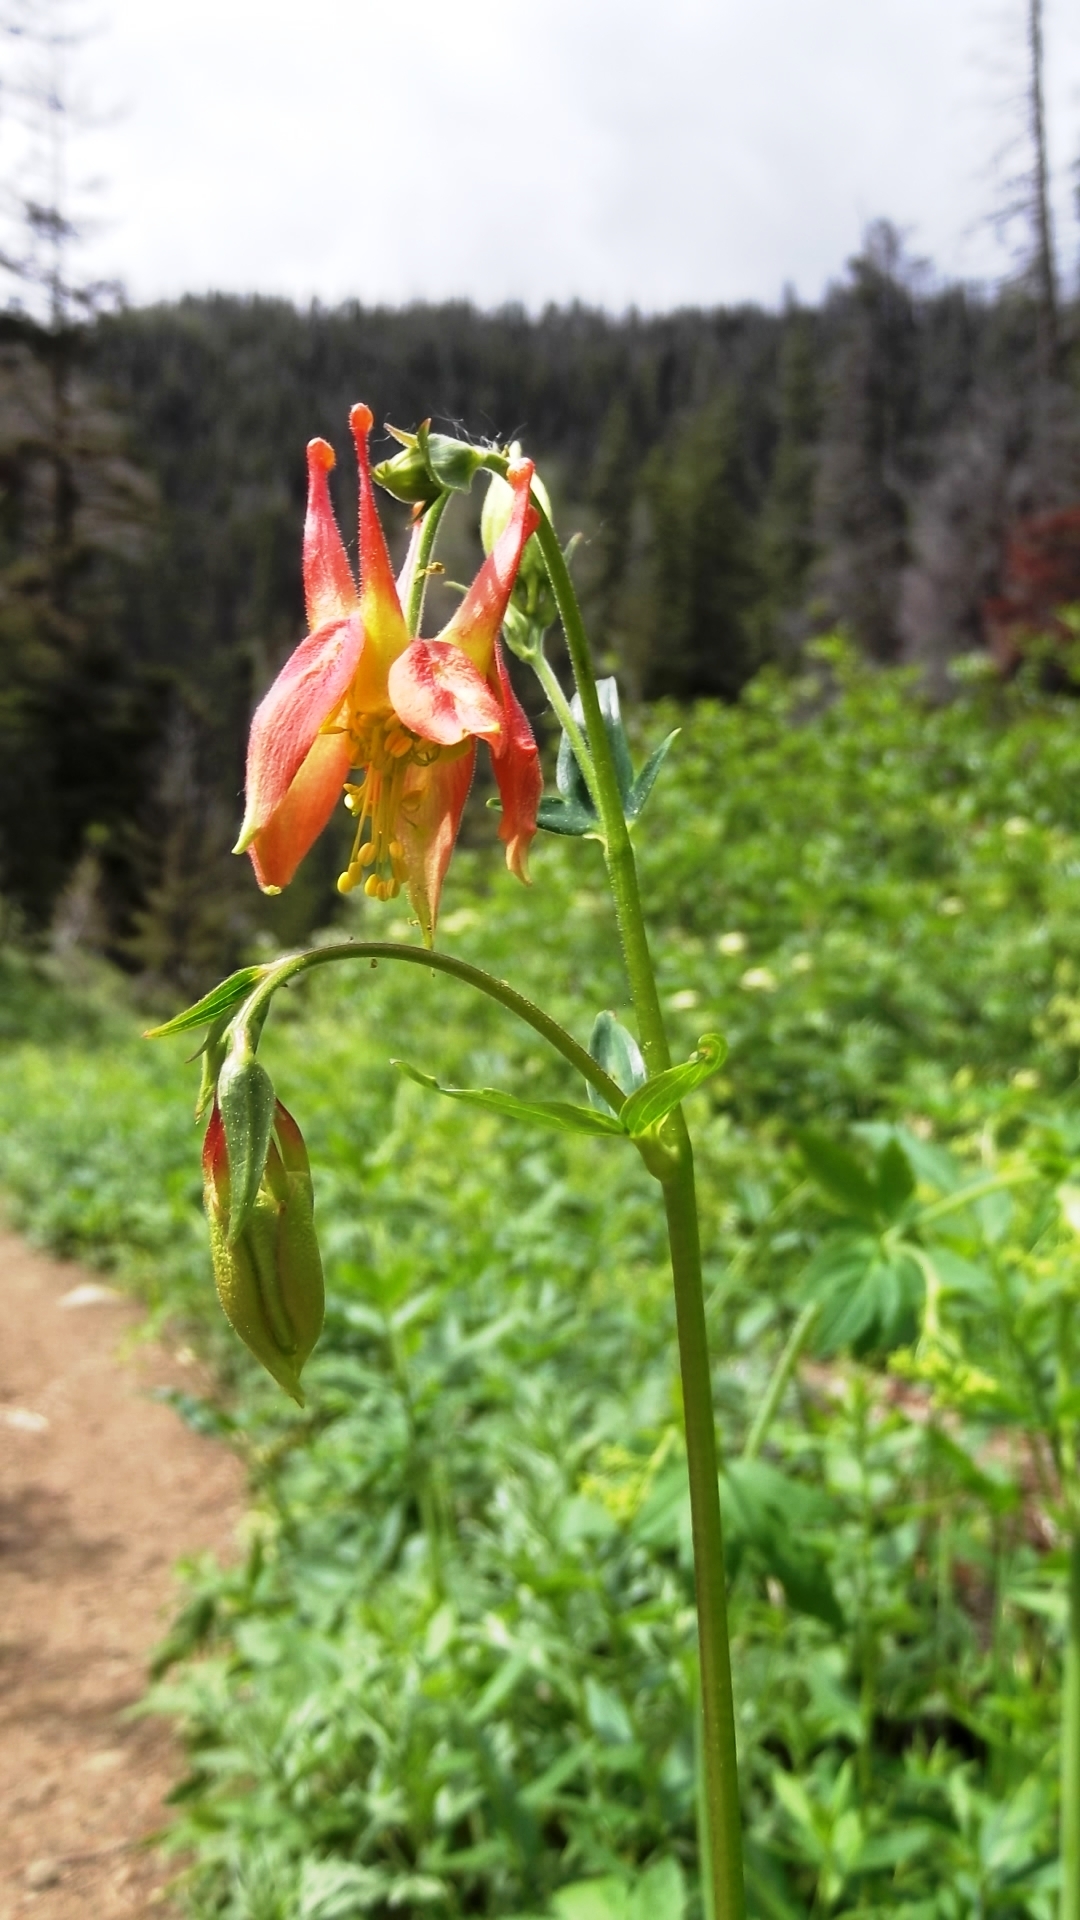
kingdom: Plantae
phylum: Tracheophyta
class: Magnoliopsida
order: Ranunculales
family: Ranunculaceae
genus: Aquilegia
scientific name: Aquilegia formosa
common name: Sitka columbine
